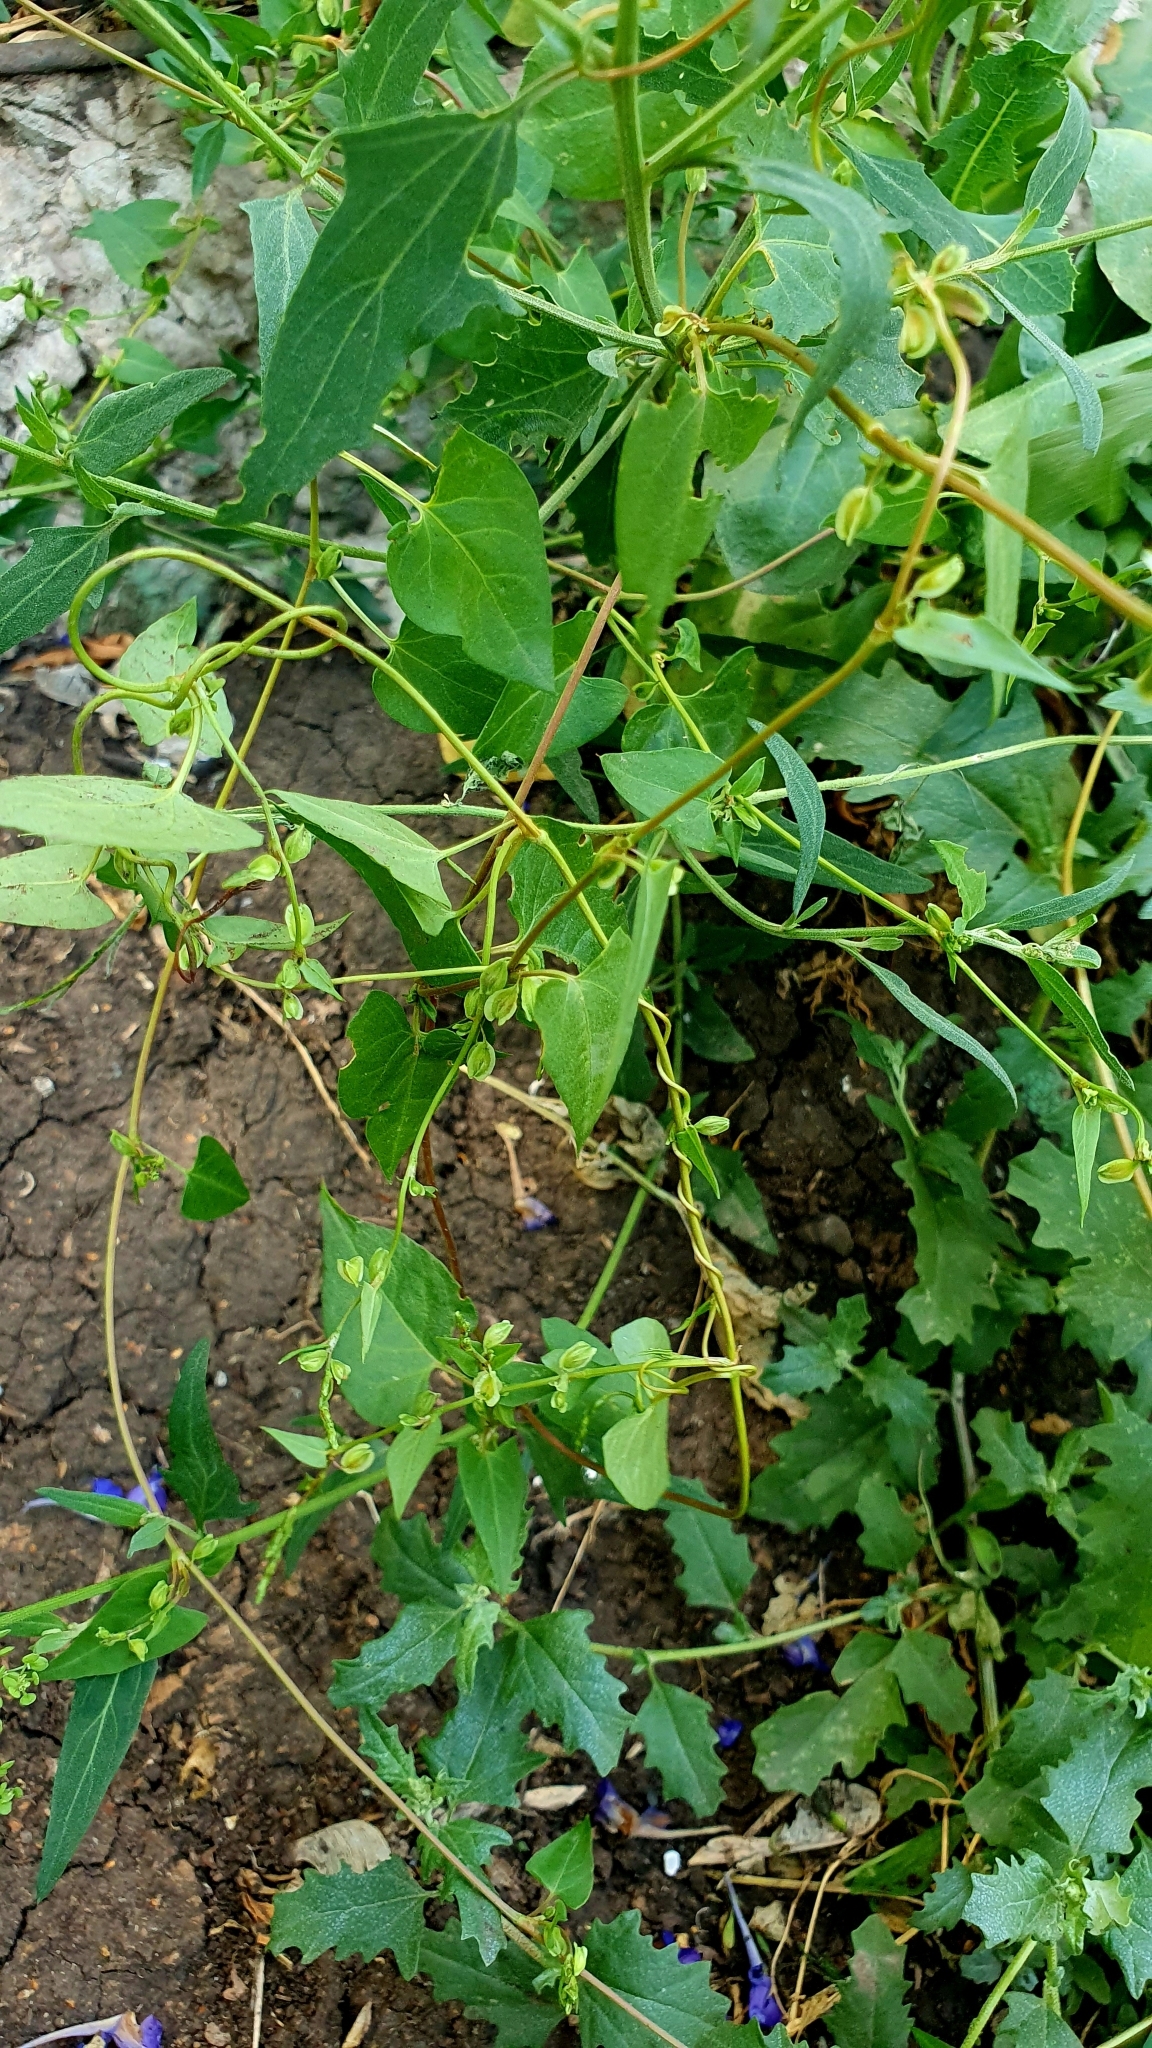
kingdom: Plantae
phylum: Tracheophyta
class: Magnoliopsida
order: Caryophyllales
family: Polygonaceae
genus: Fallopia
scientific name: Fallopia convolvulus
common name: Black bindweed
